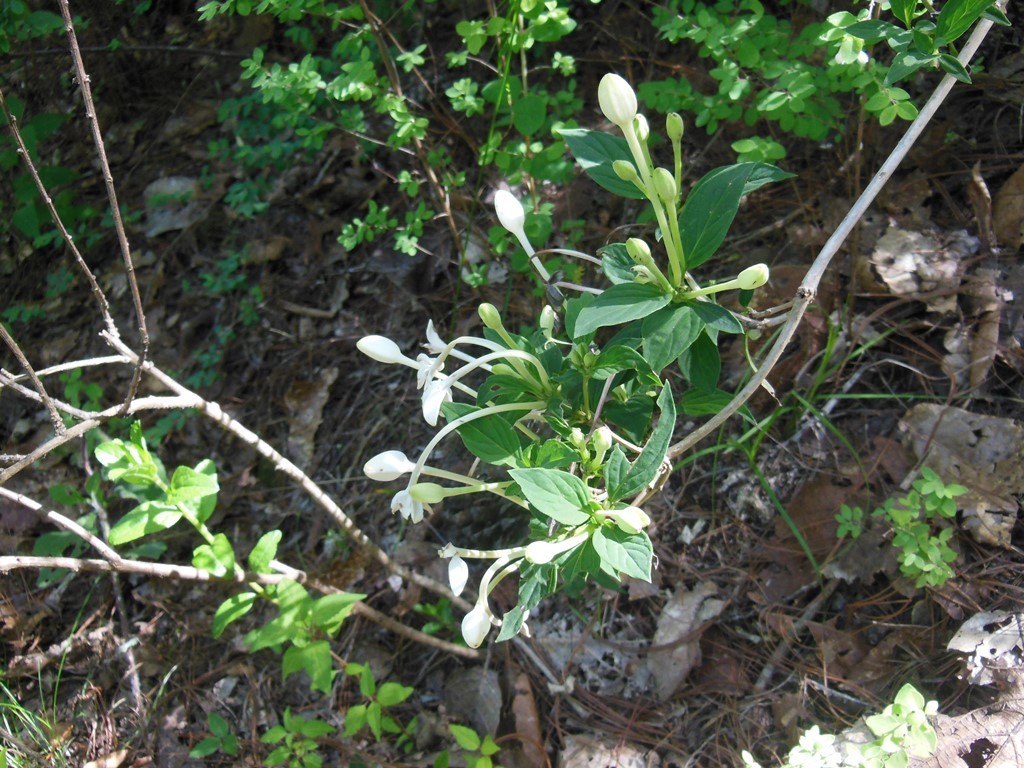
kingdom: Plantae
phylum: Tracheophyta
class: Magnoliopsida
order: Gentianales
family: Rubiaceae
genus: Bouvardia
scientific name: Bouvardia longiflora
